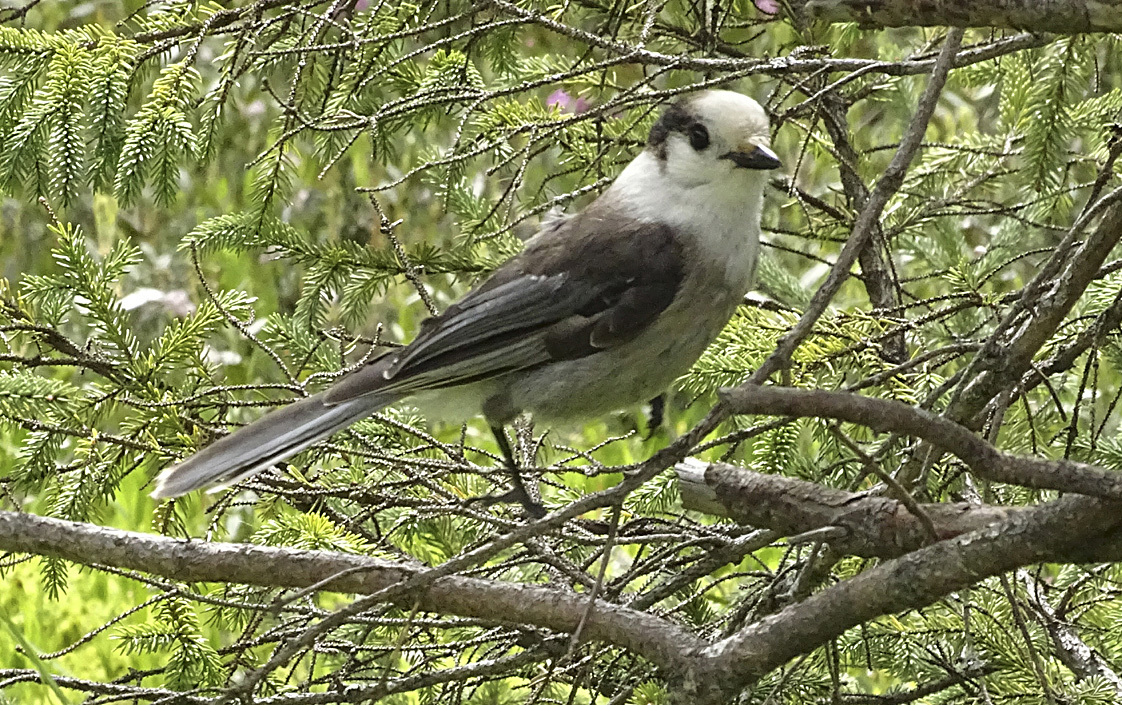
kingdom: Animalia
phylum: Chordata
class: Aves
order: Passeriformes
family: Corvidae
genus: Perisoreus
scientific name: Perisoreus canadensis
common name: Gray jay
